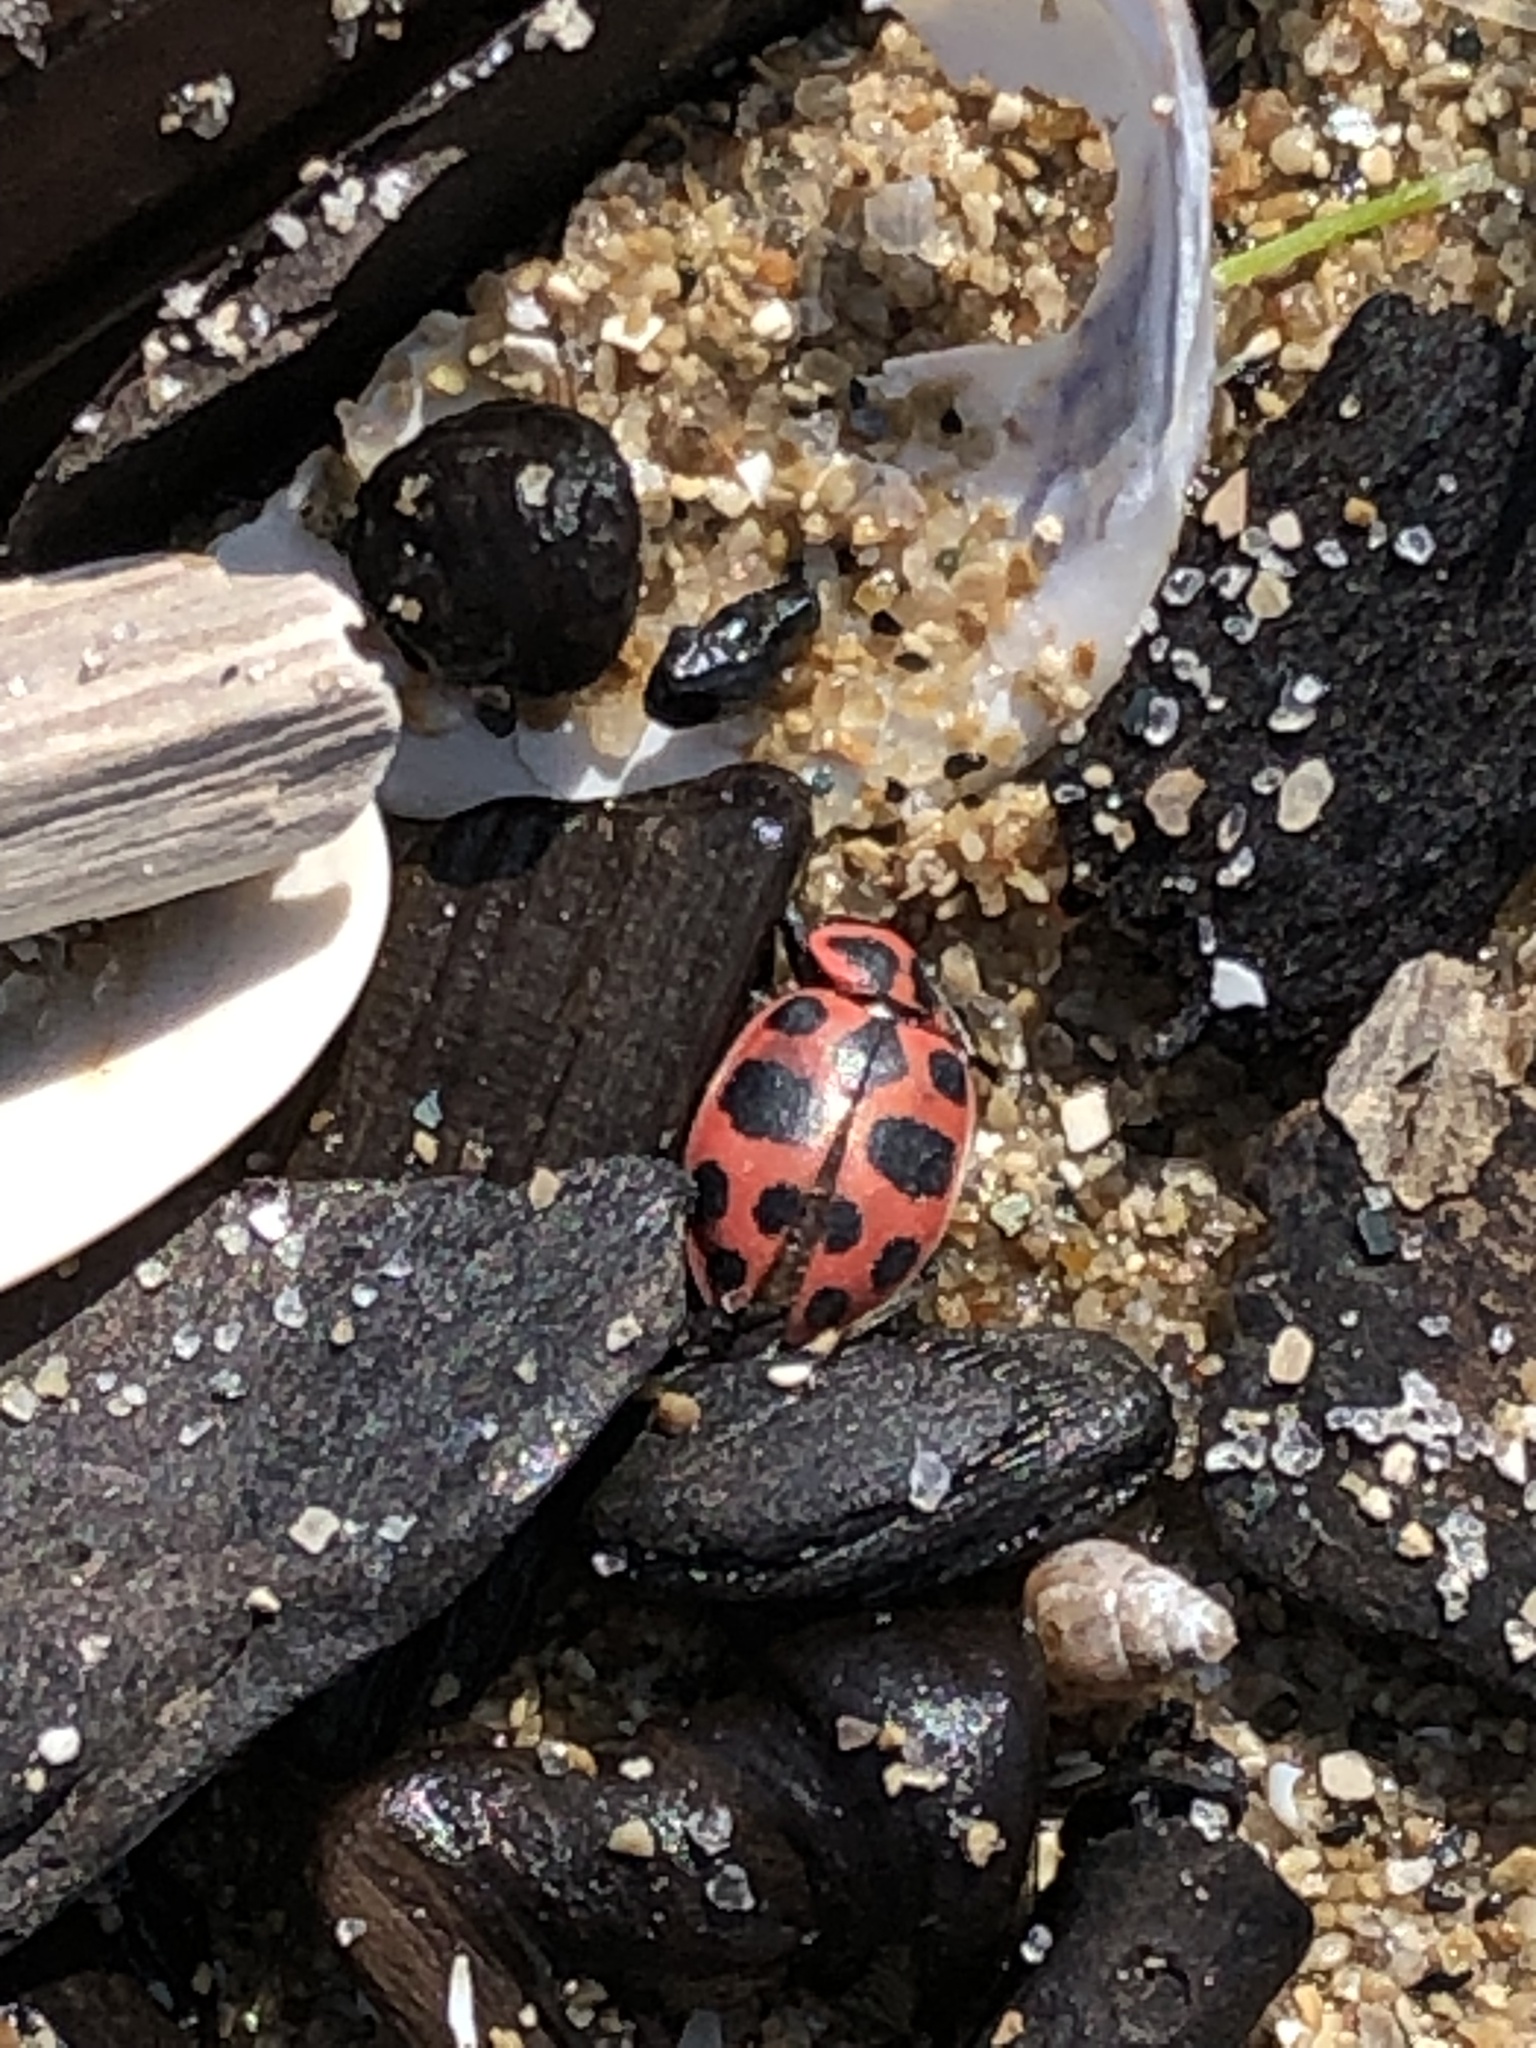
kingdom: Animalia
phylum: Arthropoda
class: Insecta
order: Coleoptera
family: Coccinellidae
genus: Coleomegilla
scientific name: Coleomegilla maculata
